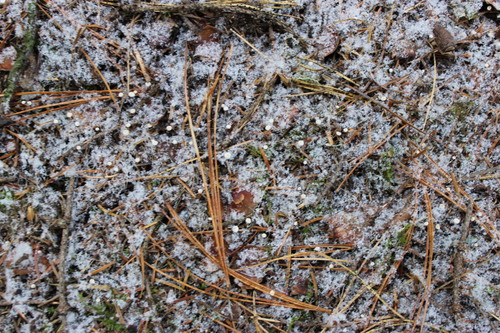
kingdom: Fungi
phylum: Basidiomycota
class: Agaricomycetes
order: Agaricales
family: Marasmiaceae
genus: Marasmius
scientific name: Marasmius epiphyllus
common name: Leaf parachute
